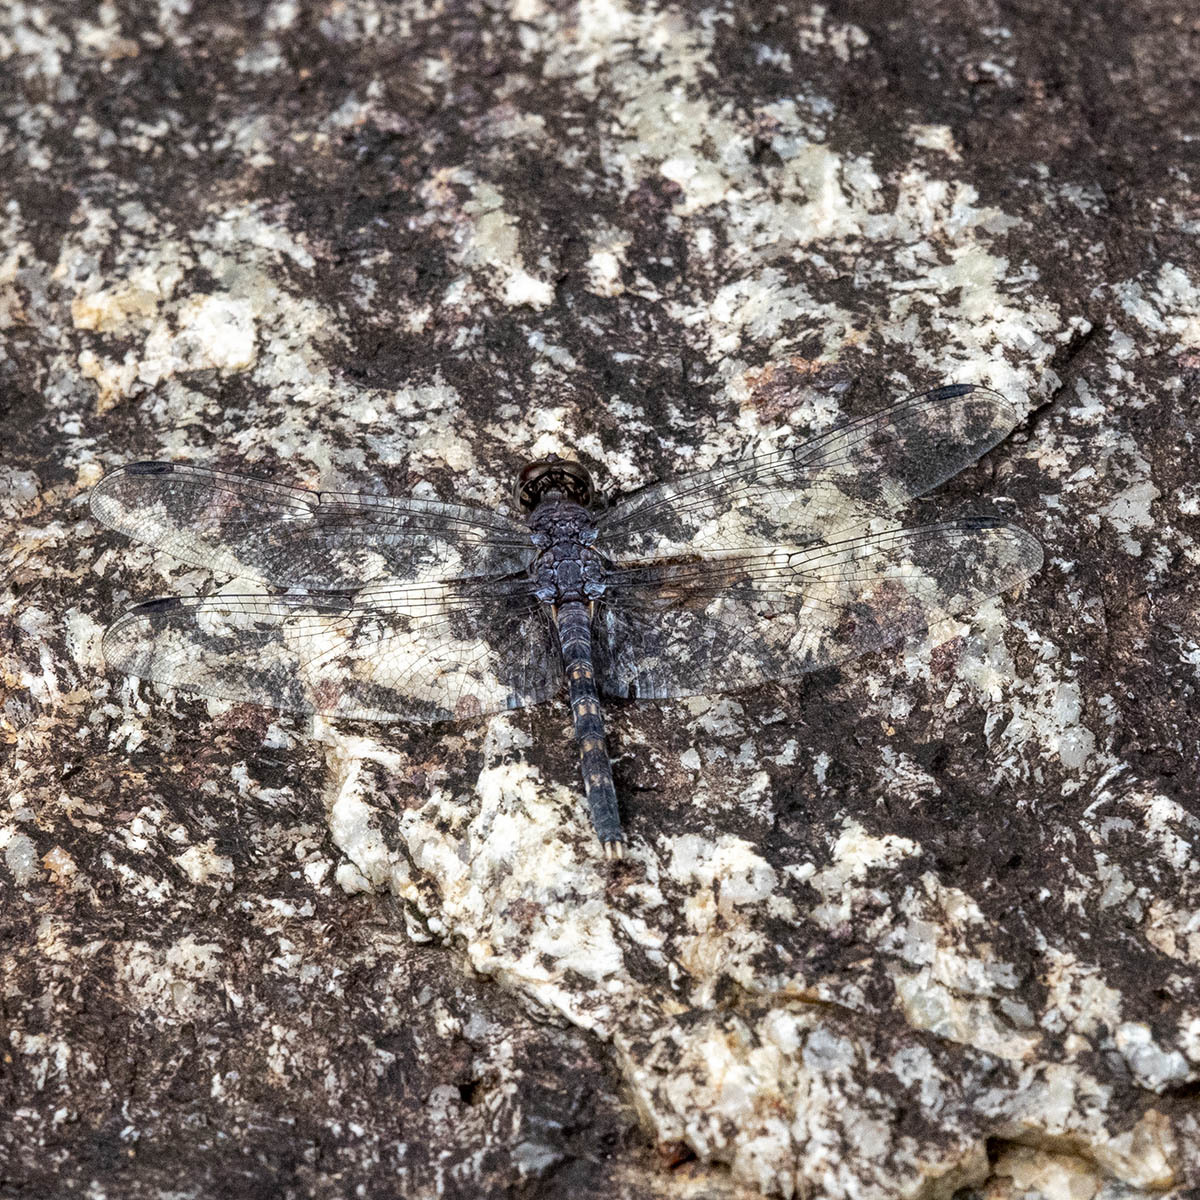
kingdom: Animalia
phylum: Arthropoda
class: Insecta
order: Odonata
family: Libellulidae
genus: Bradinopyga
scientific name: Bradinopyga geminata
